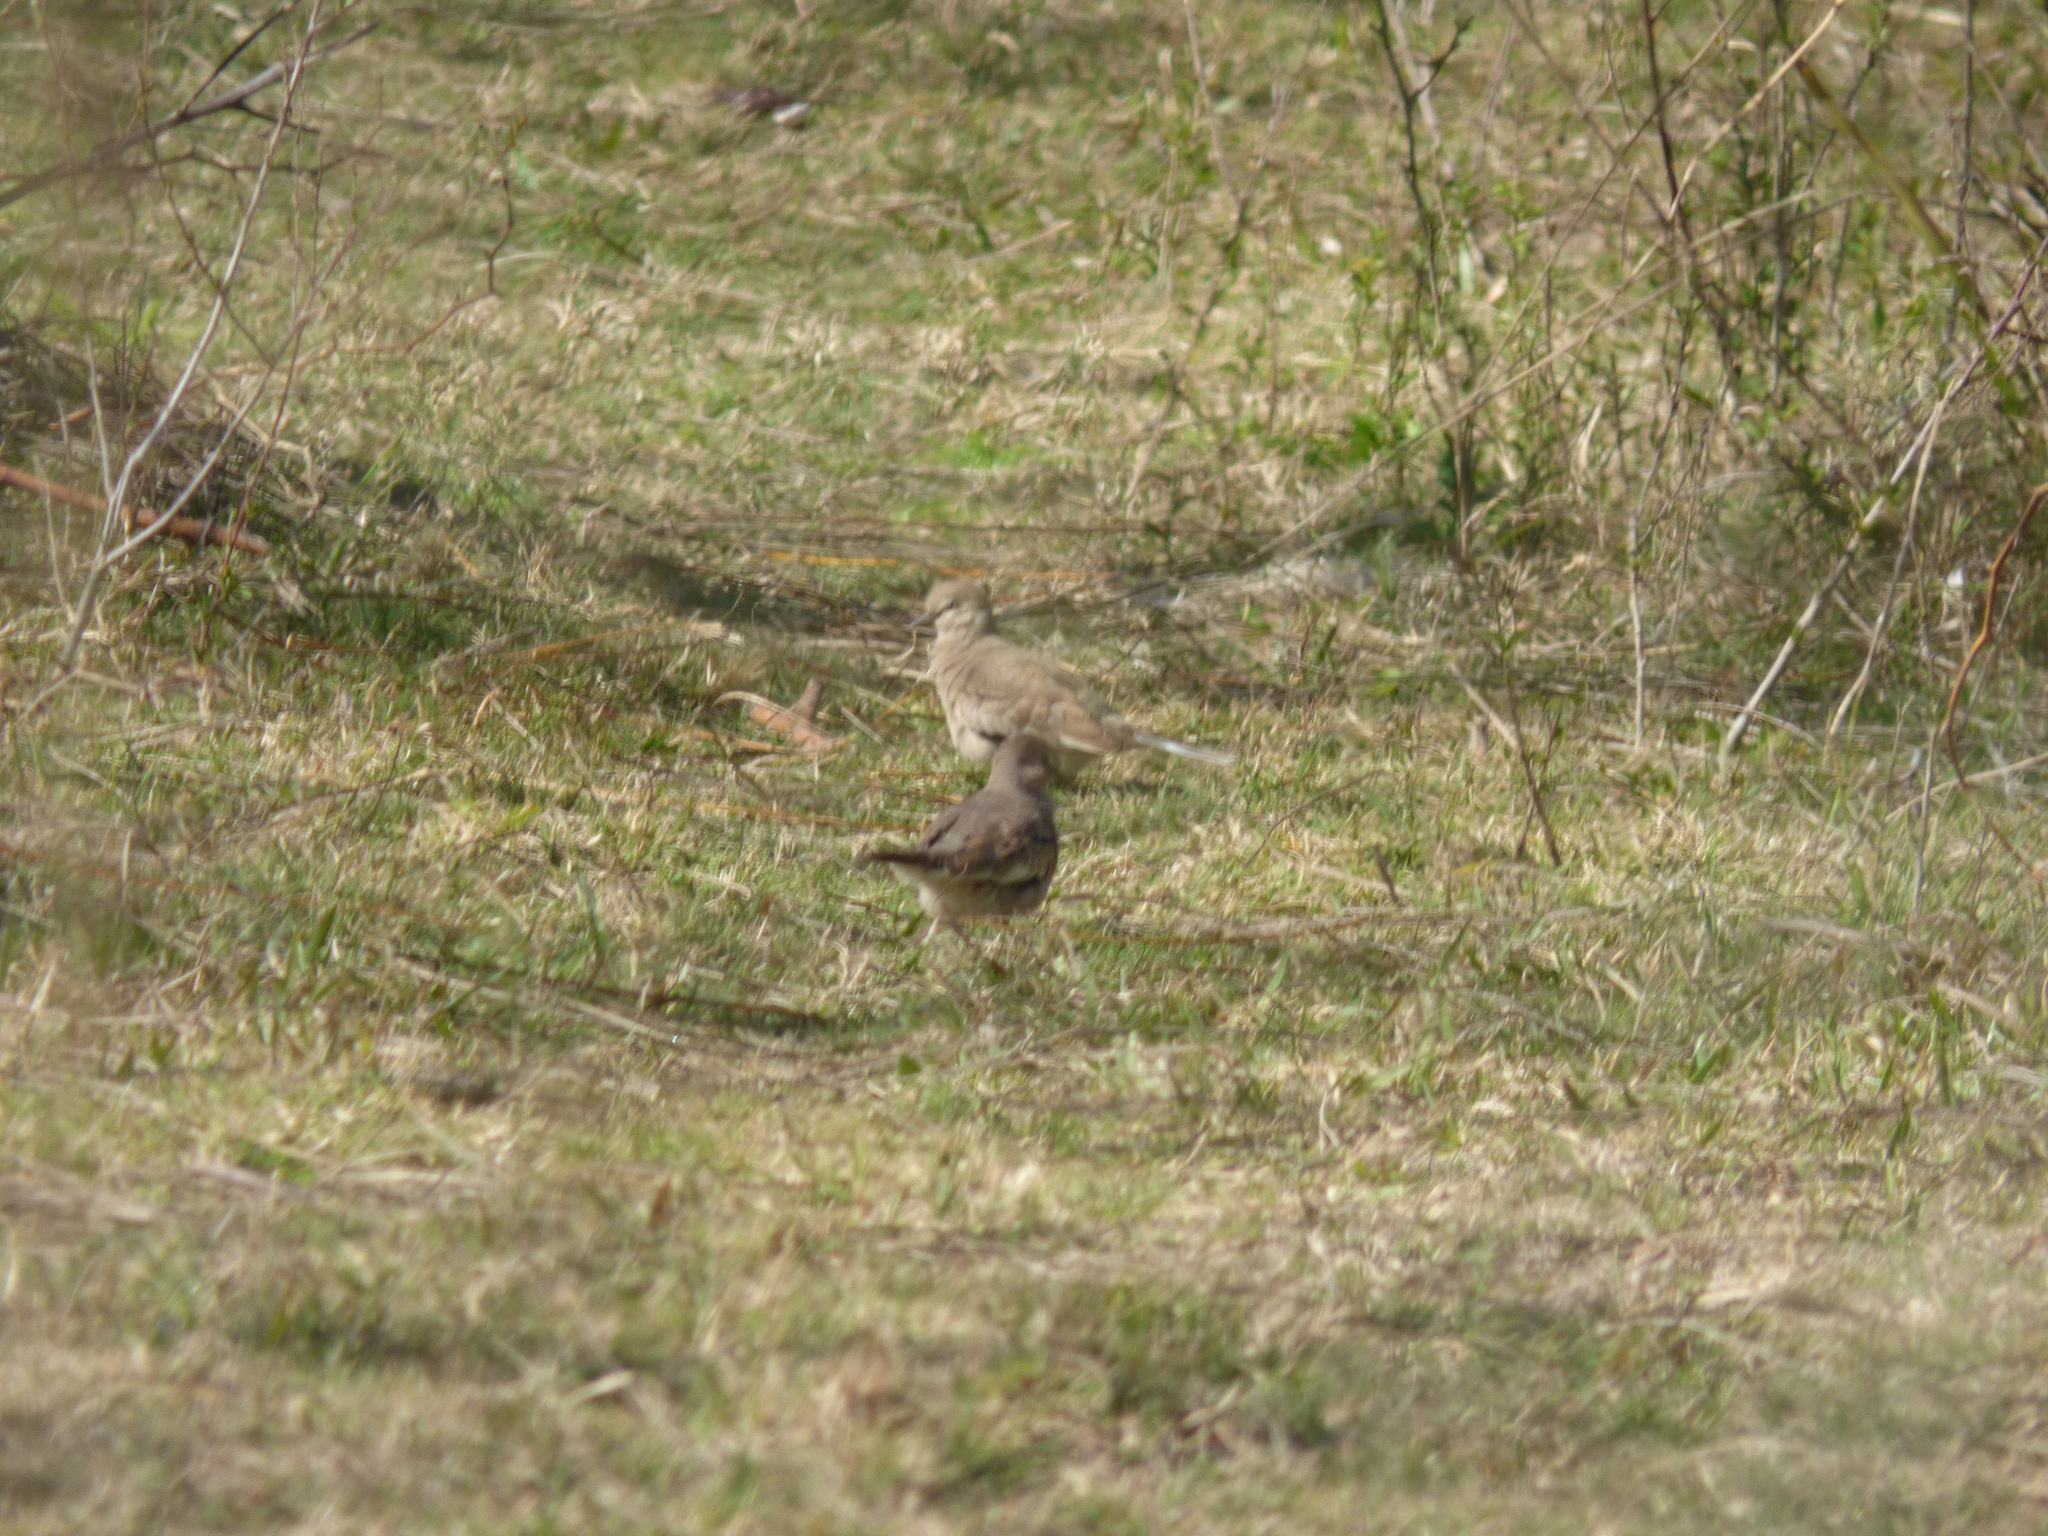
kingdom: Animalia
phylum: Chordata
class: Aves
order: Columbiformes
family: Columbidae
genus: Columbina
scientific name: Columbina picui
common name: Picui ground dove
